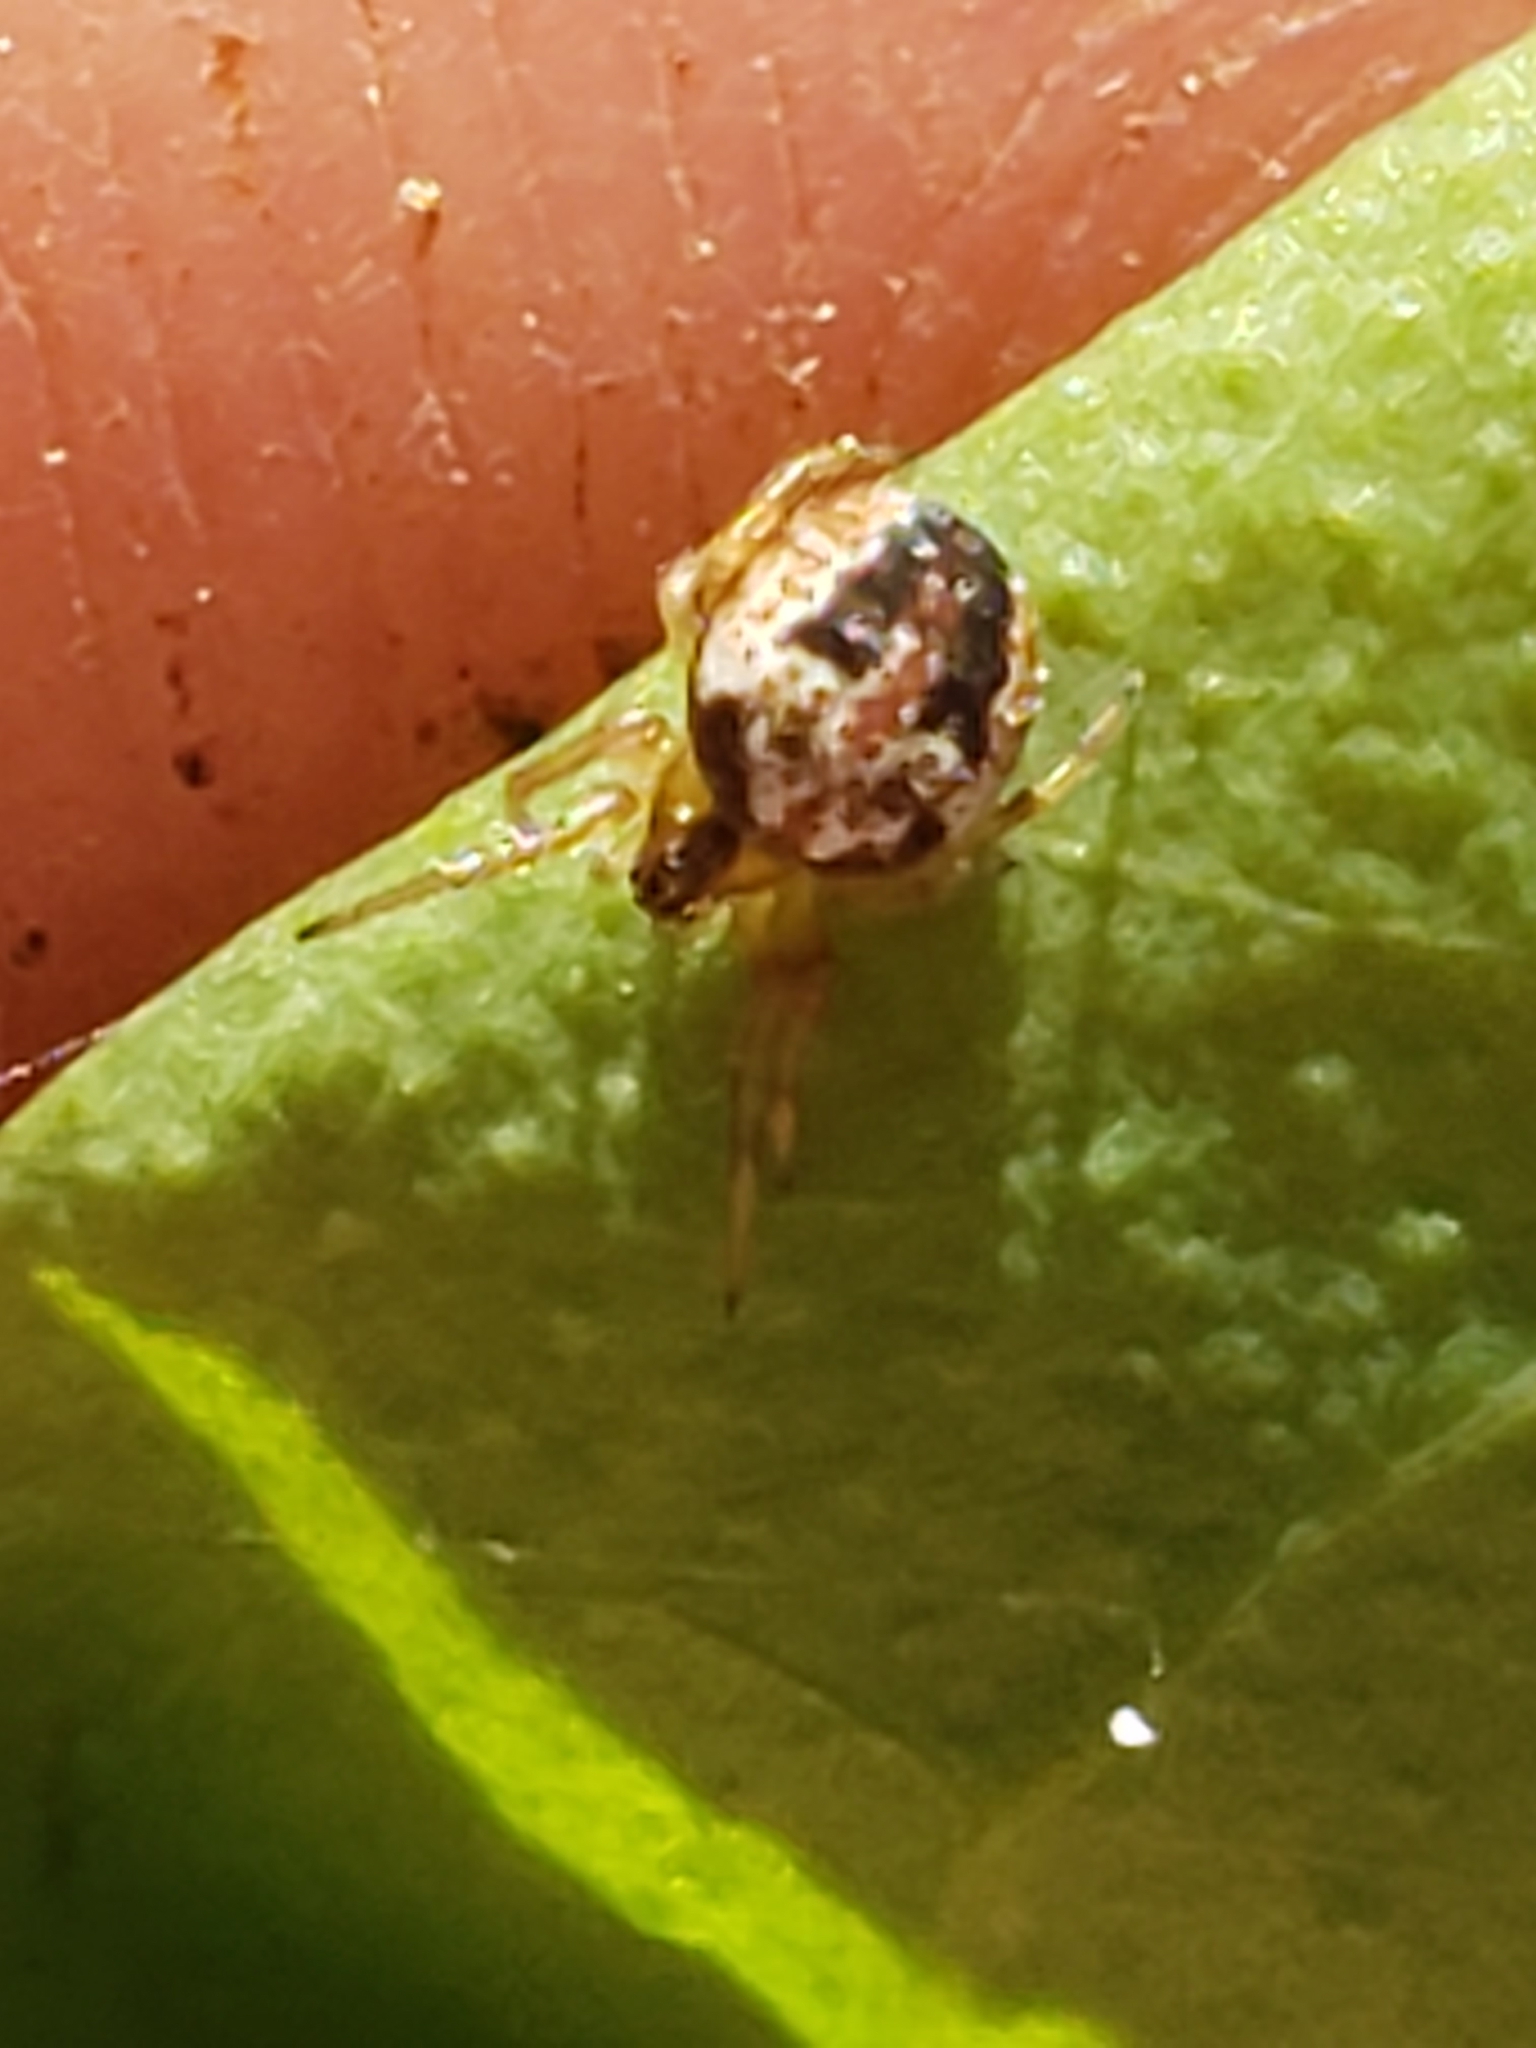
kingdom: Animalia
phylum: Arthropoda
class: Arachnida
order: Araneae
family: Araneidae
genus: Neoscona
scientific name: Neoscona arabesca
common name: Orb weavers
